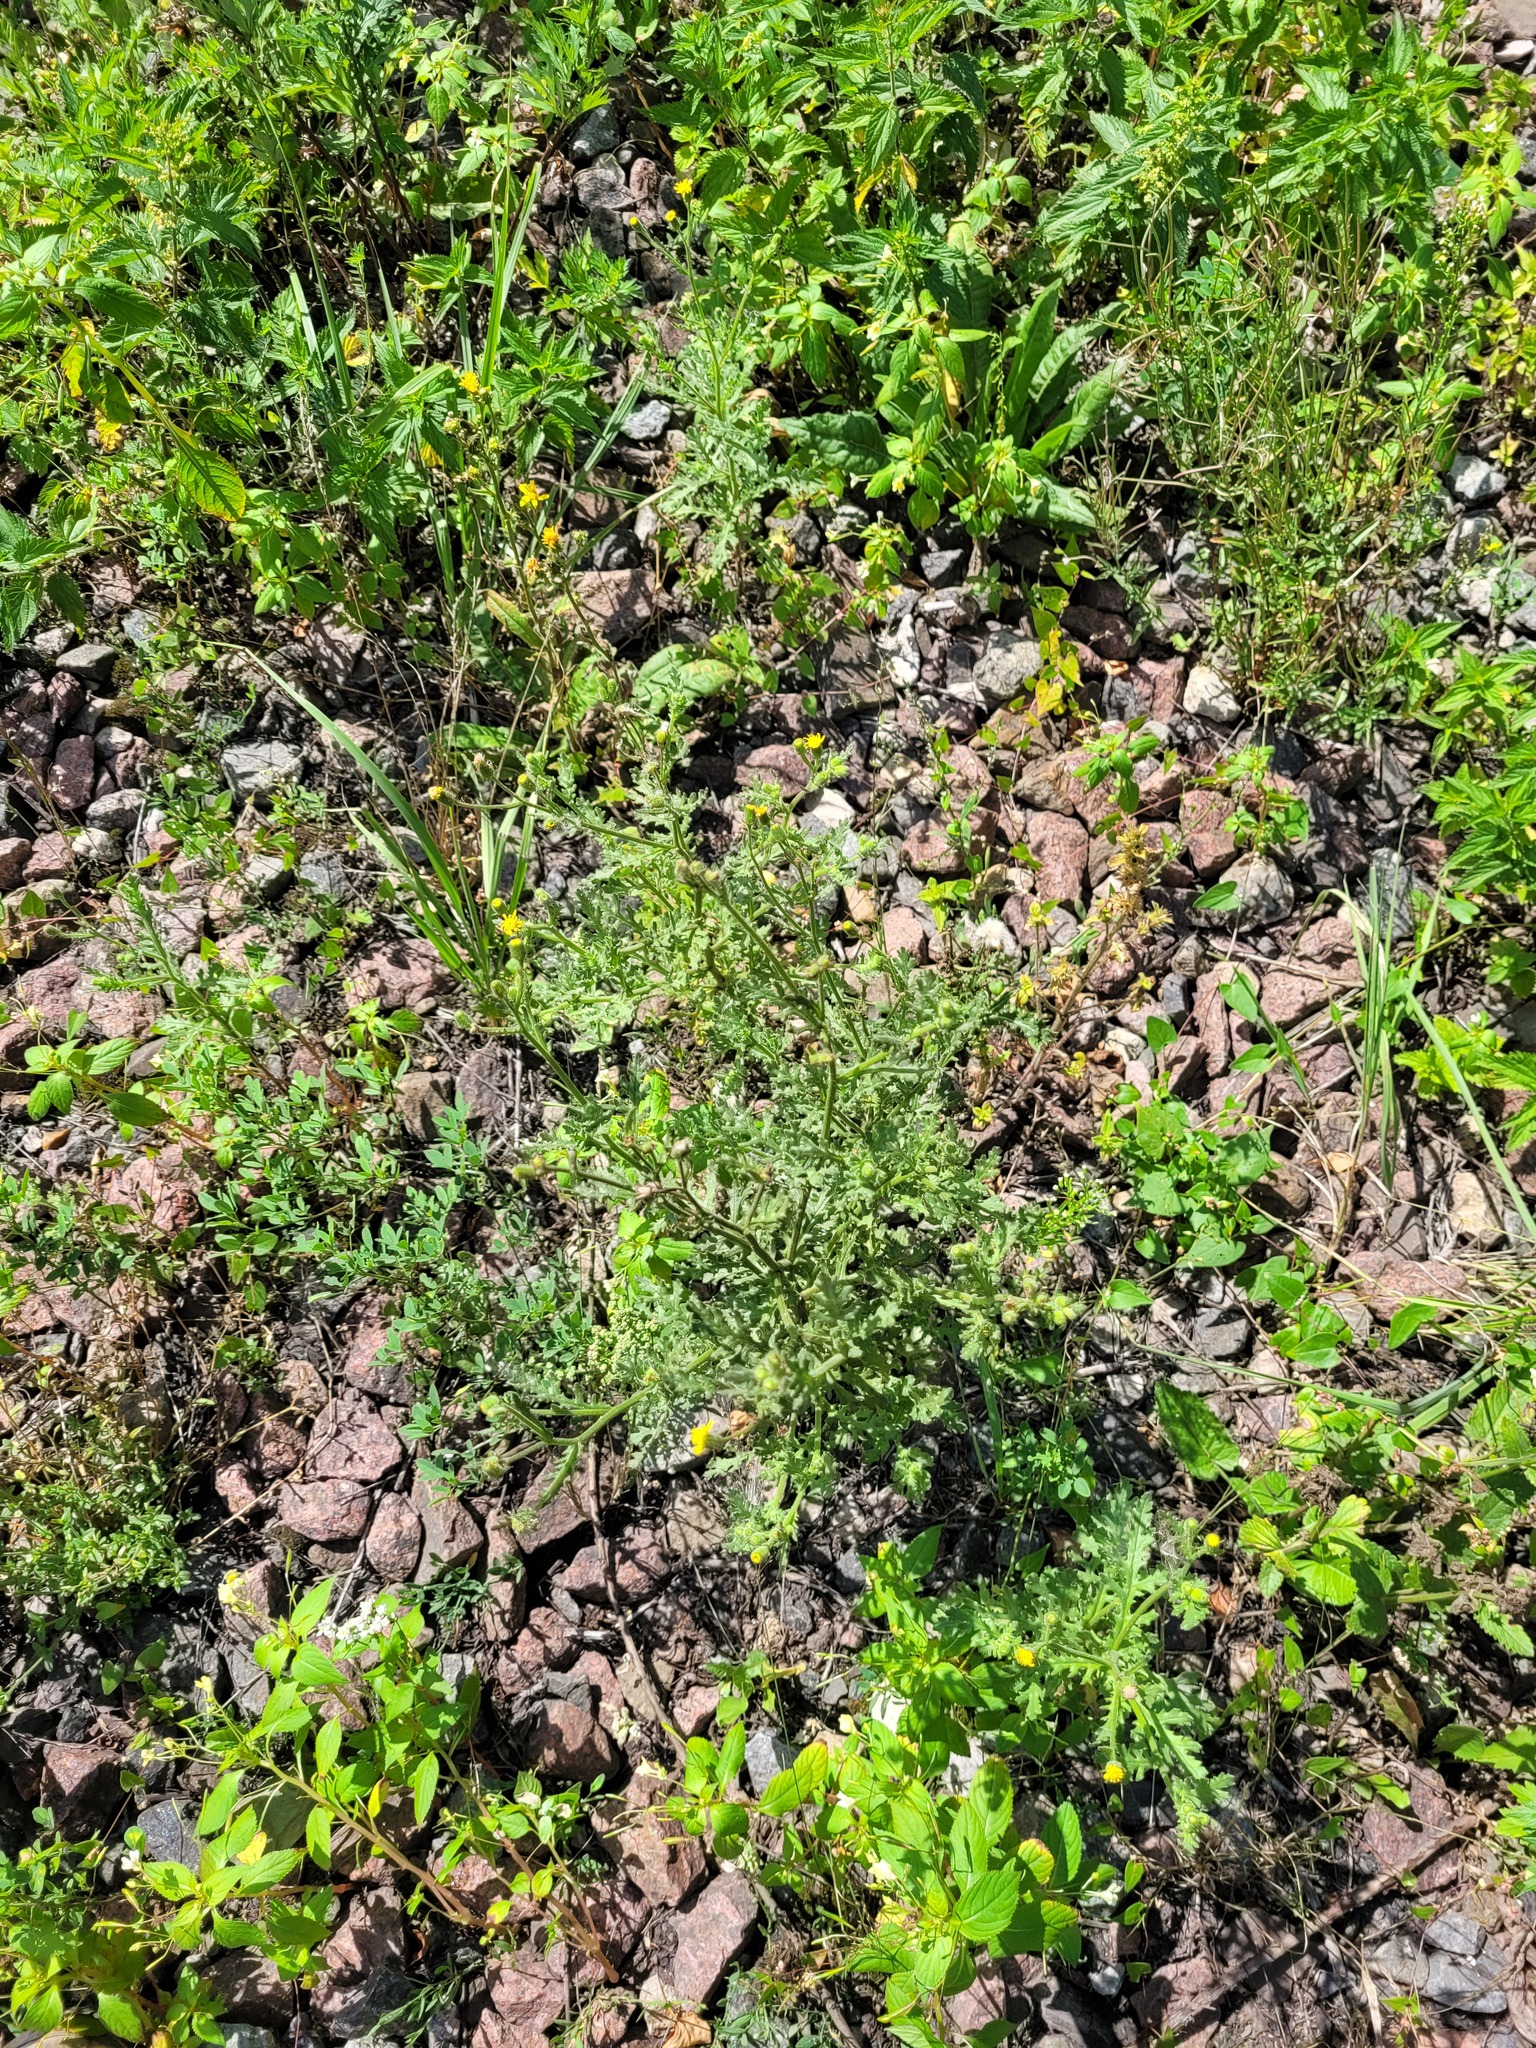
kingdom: Plantae
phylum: Tracheophyta
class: Magnoliopsida
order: Asterales
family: Asteraceae
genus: Senecio
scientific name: Senecio viscosus
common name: Sticky groundsel
